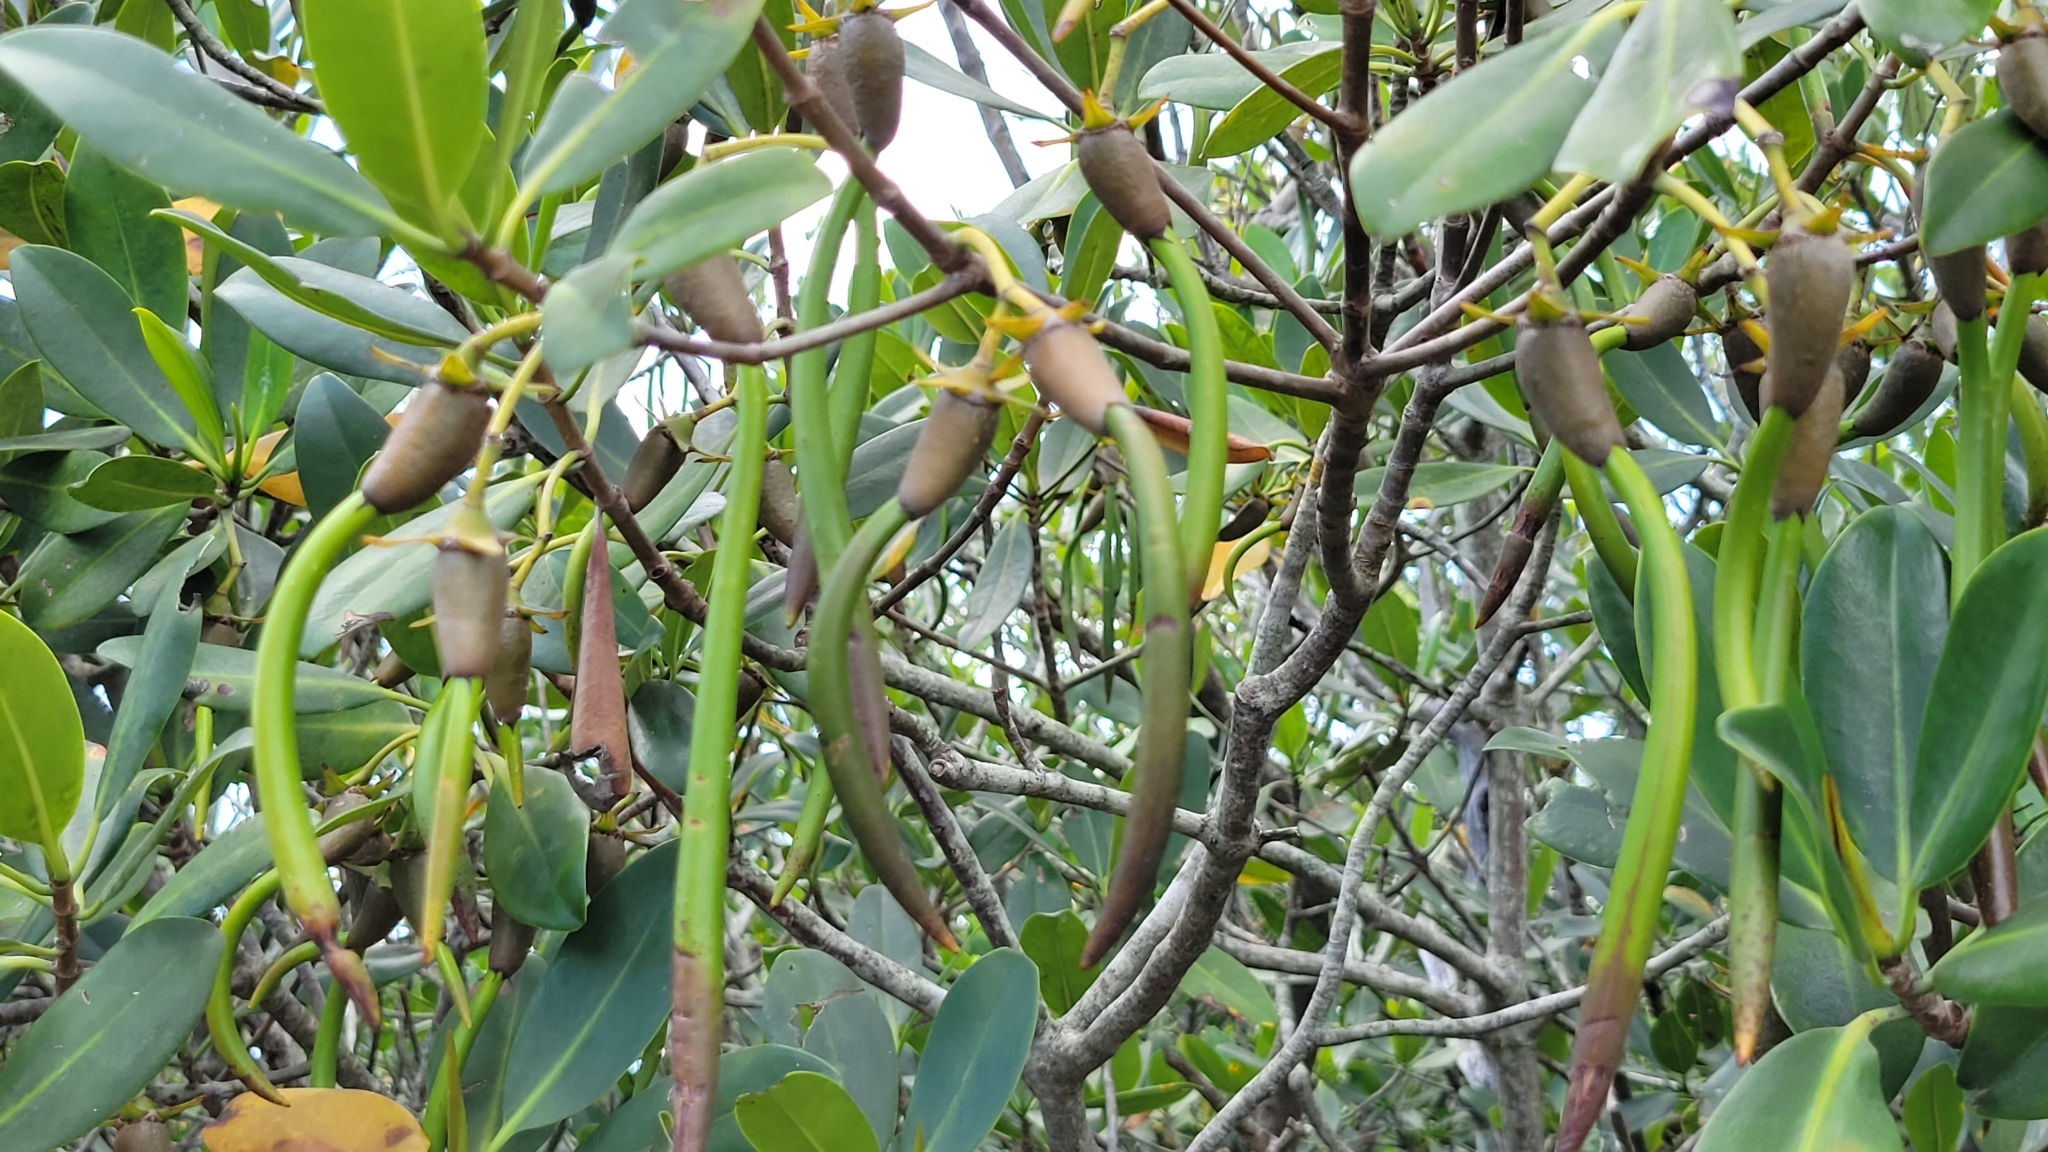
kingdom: Plantae
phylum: Tracheophyta
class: Magnoliopsida
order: Malpighiales
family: Rhizophoraceae
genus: Rhizophora
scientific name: Rhizophora mangle
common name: Red mangrove
